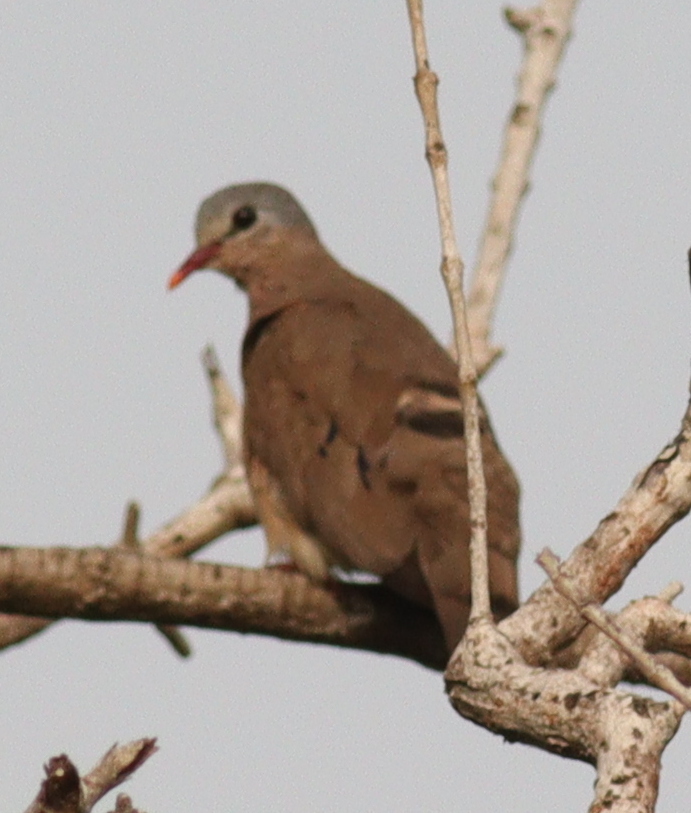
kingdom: Animalia
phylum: Chordata
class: Aves
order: Columbiformes
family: Columbidae
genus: Turtur
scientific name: Turtur afer
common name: Blue-spotted wood dove
